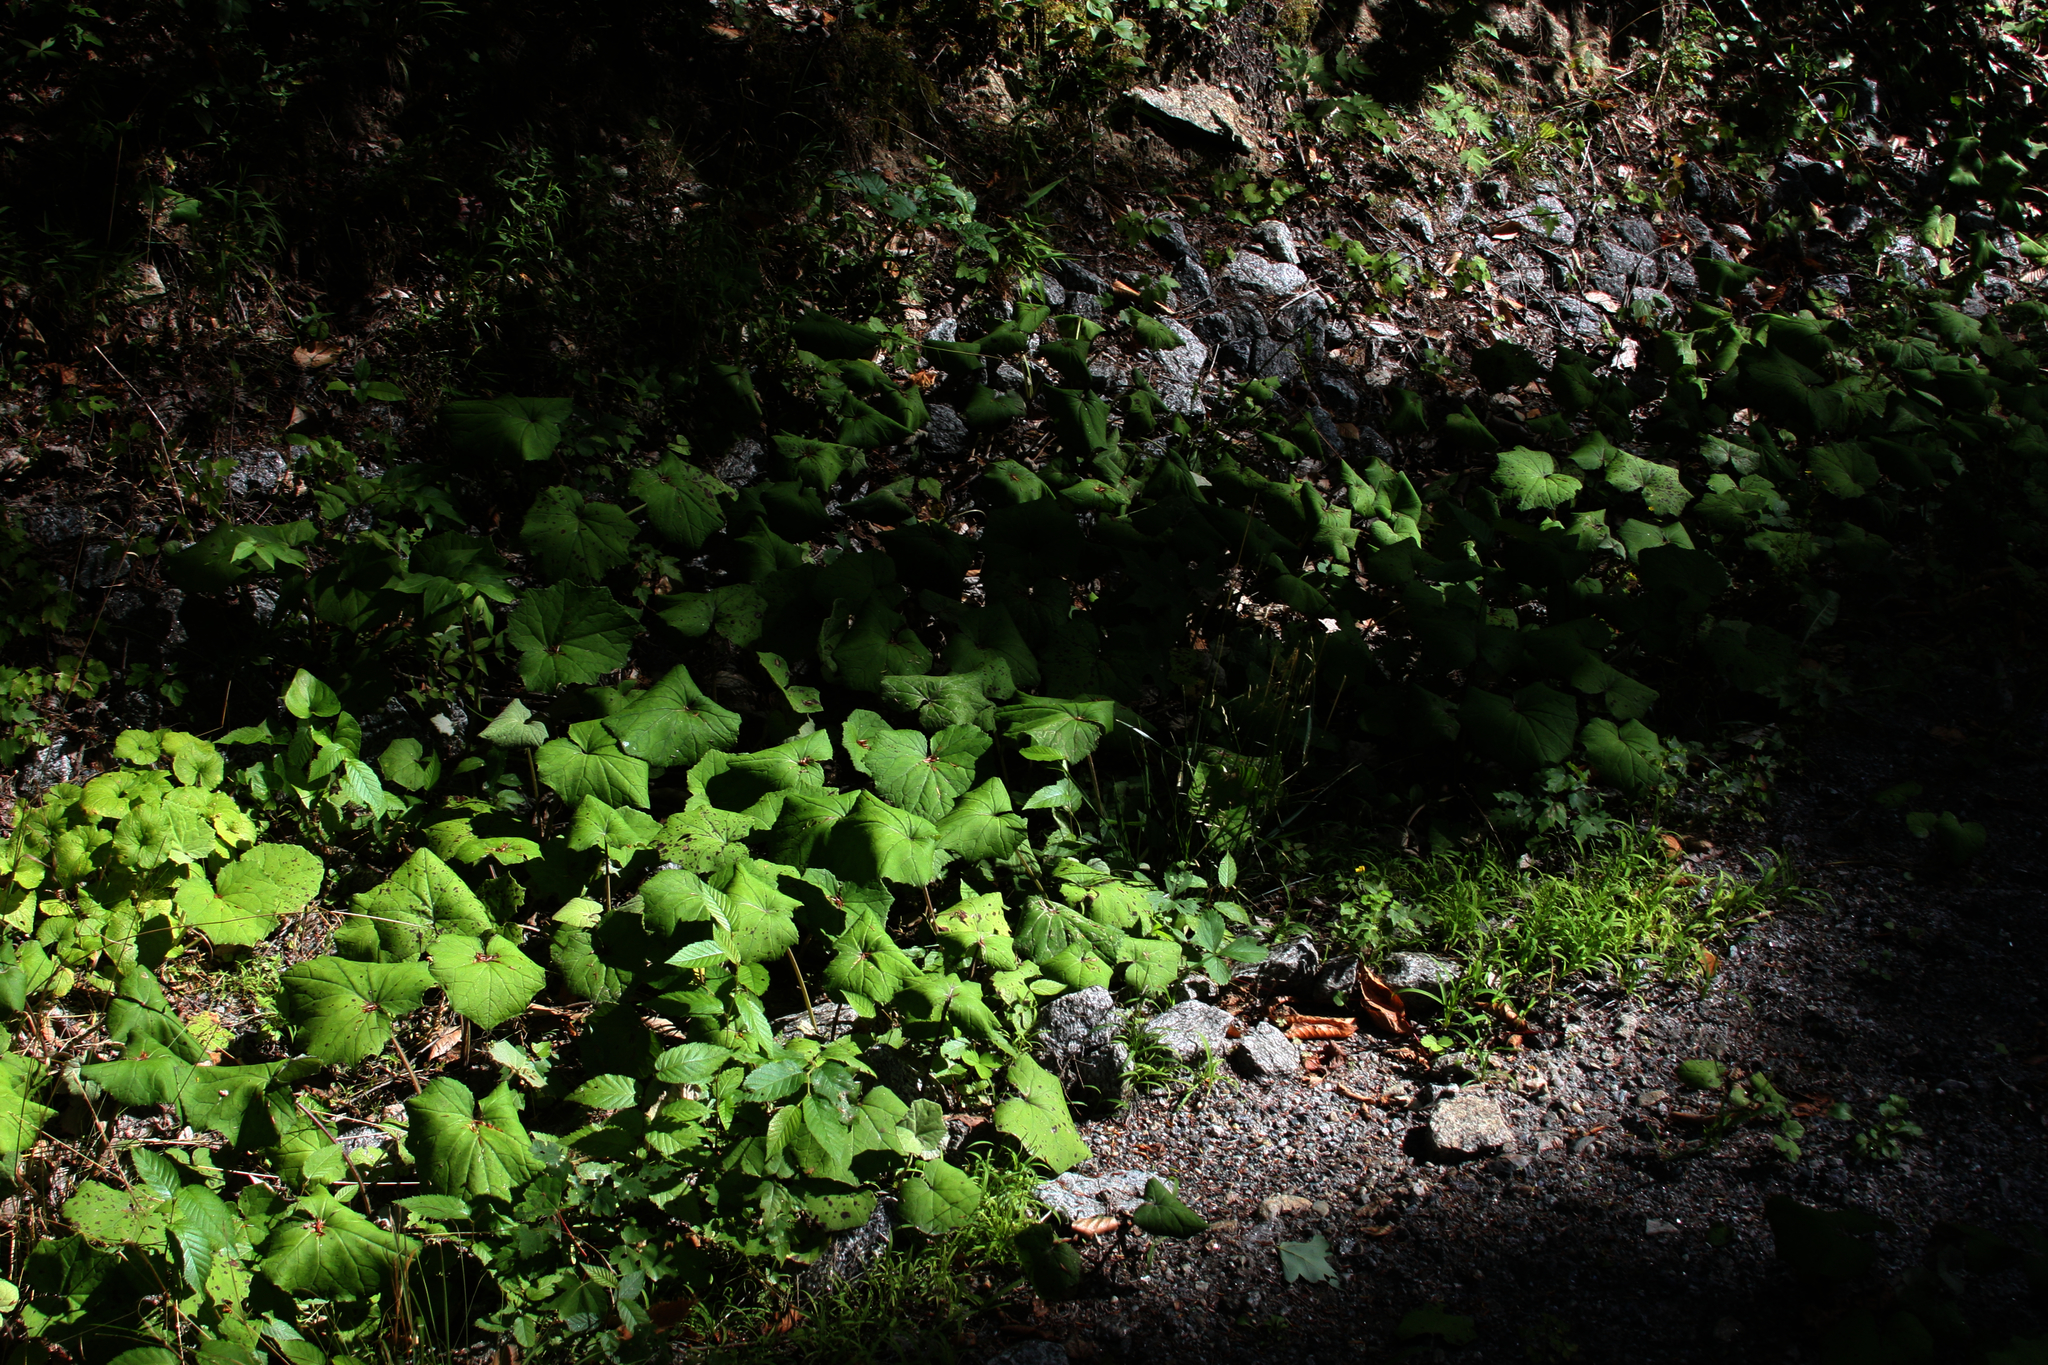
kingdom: Plantae
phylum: Tracheophyta
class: Magnoliopsida
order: Asterales
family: Asteraceae
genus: Tussilago
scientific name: Tussilago farfara
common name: Coltsfoot
